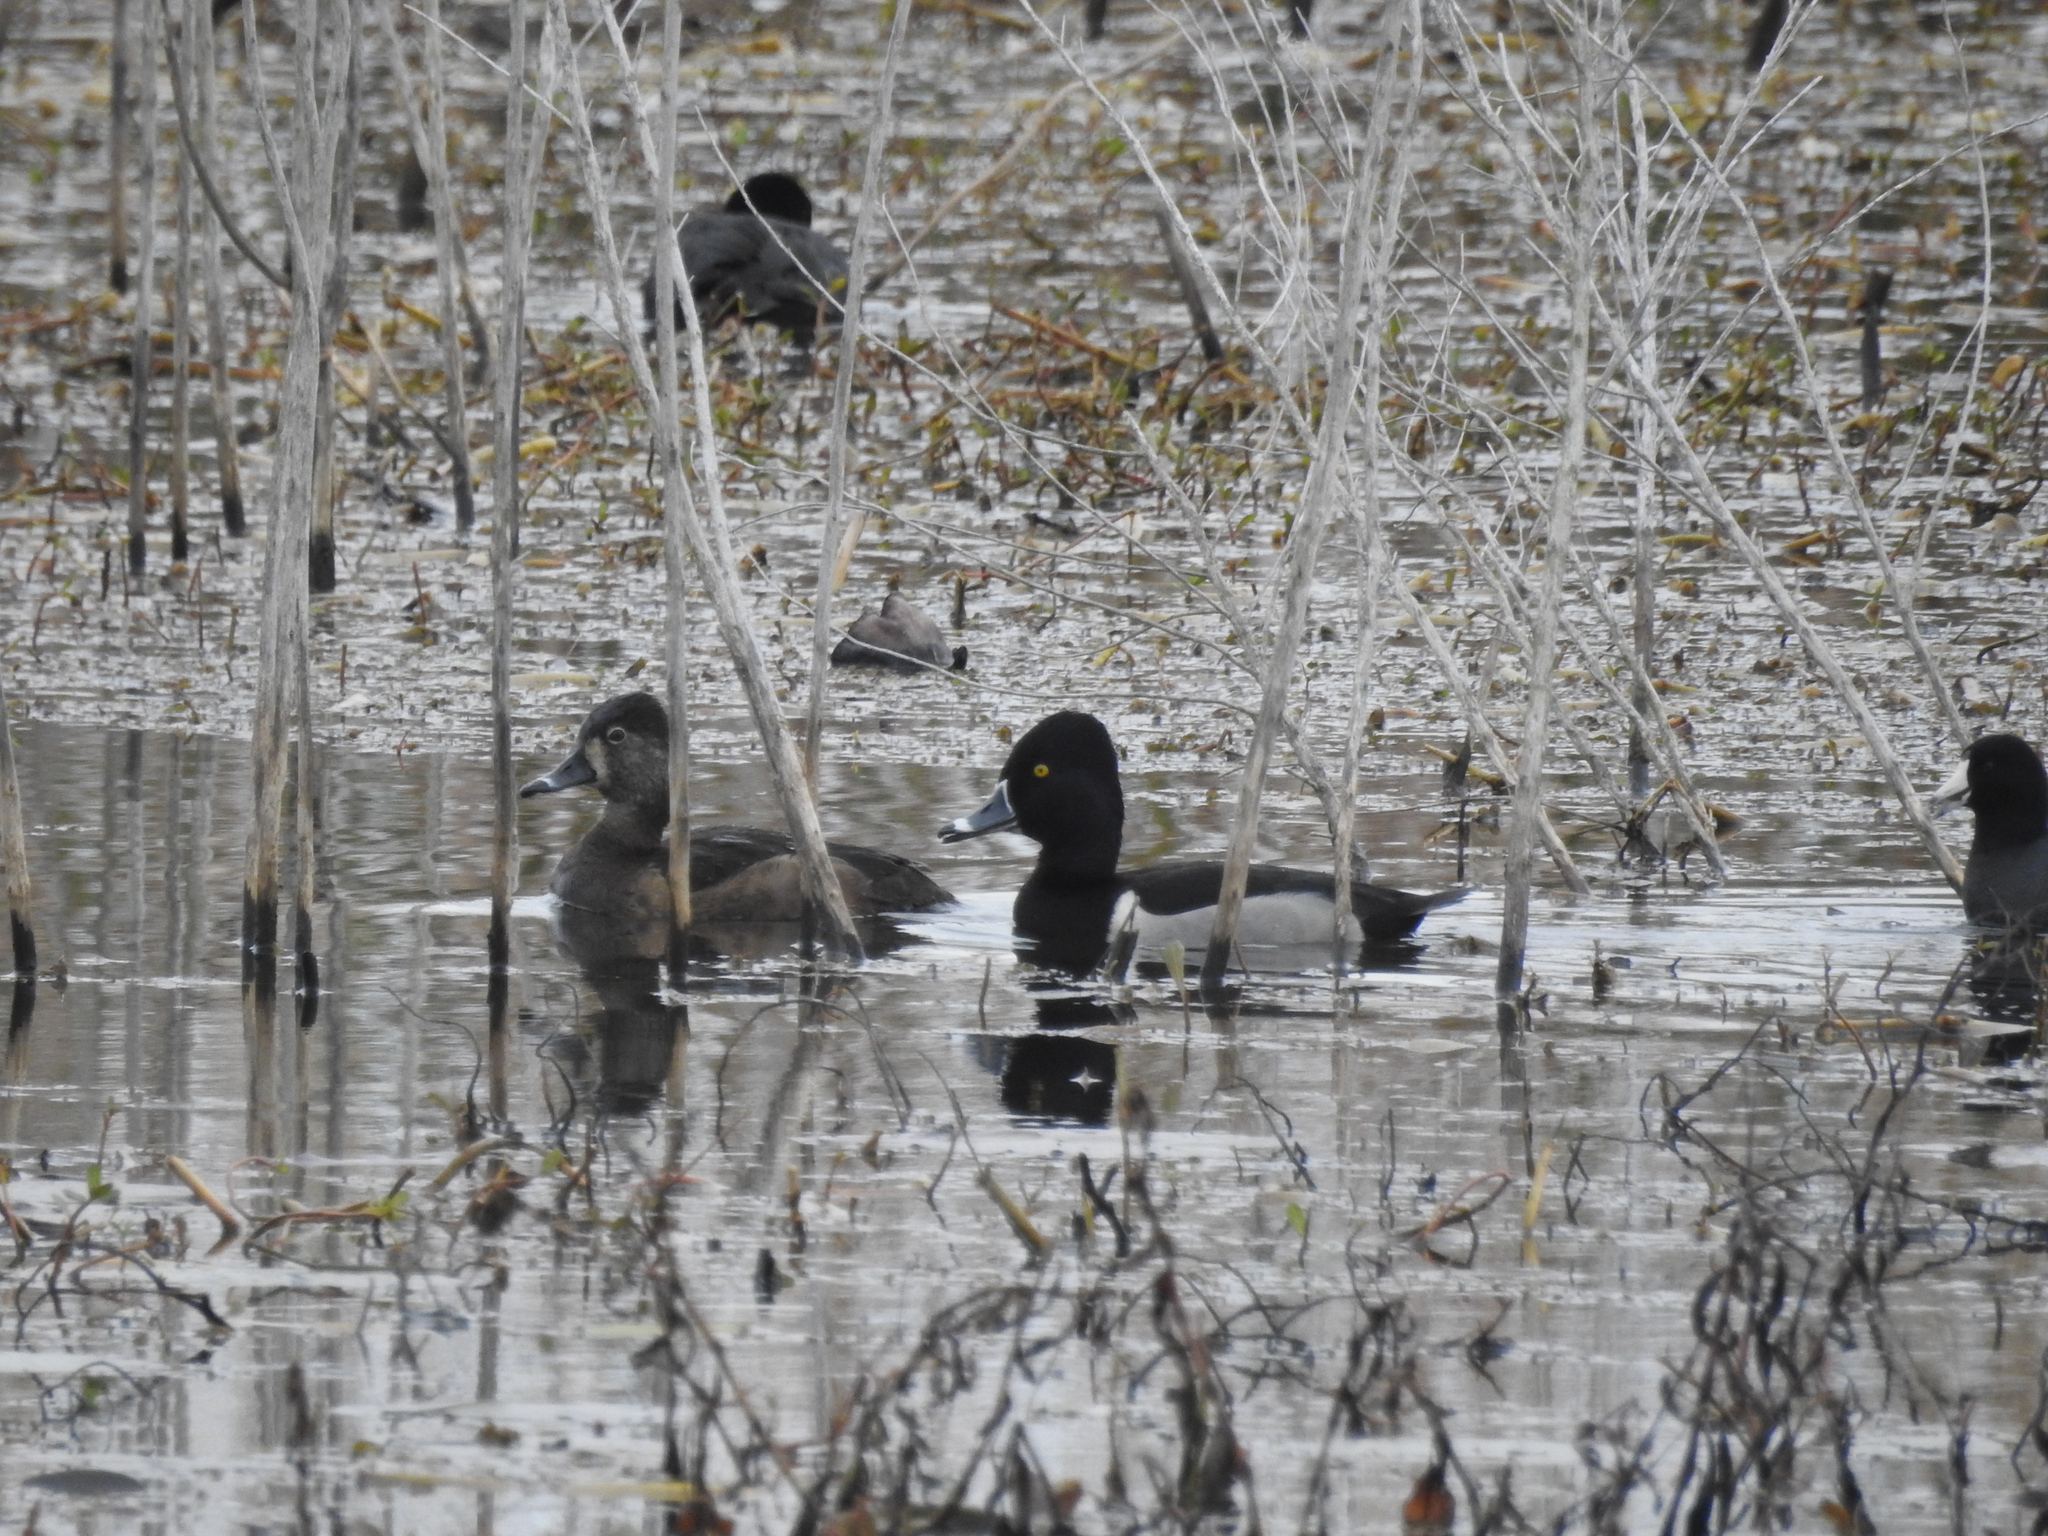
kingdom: Animalia
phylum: Chordata
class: Aves
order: Anseriformes
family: Anatidae
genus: Aythya
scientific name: Aythya collaris
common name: Ring-necked duck
